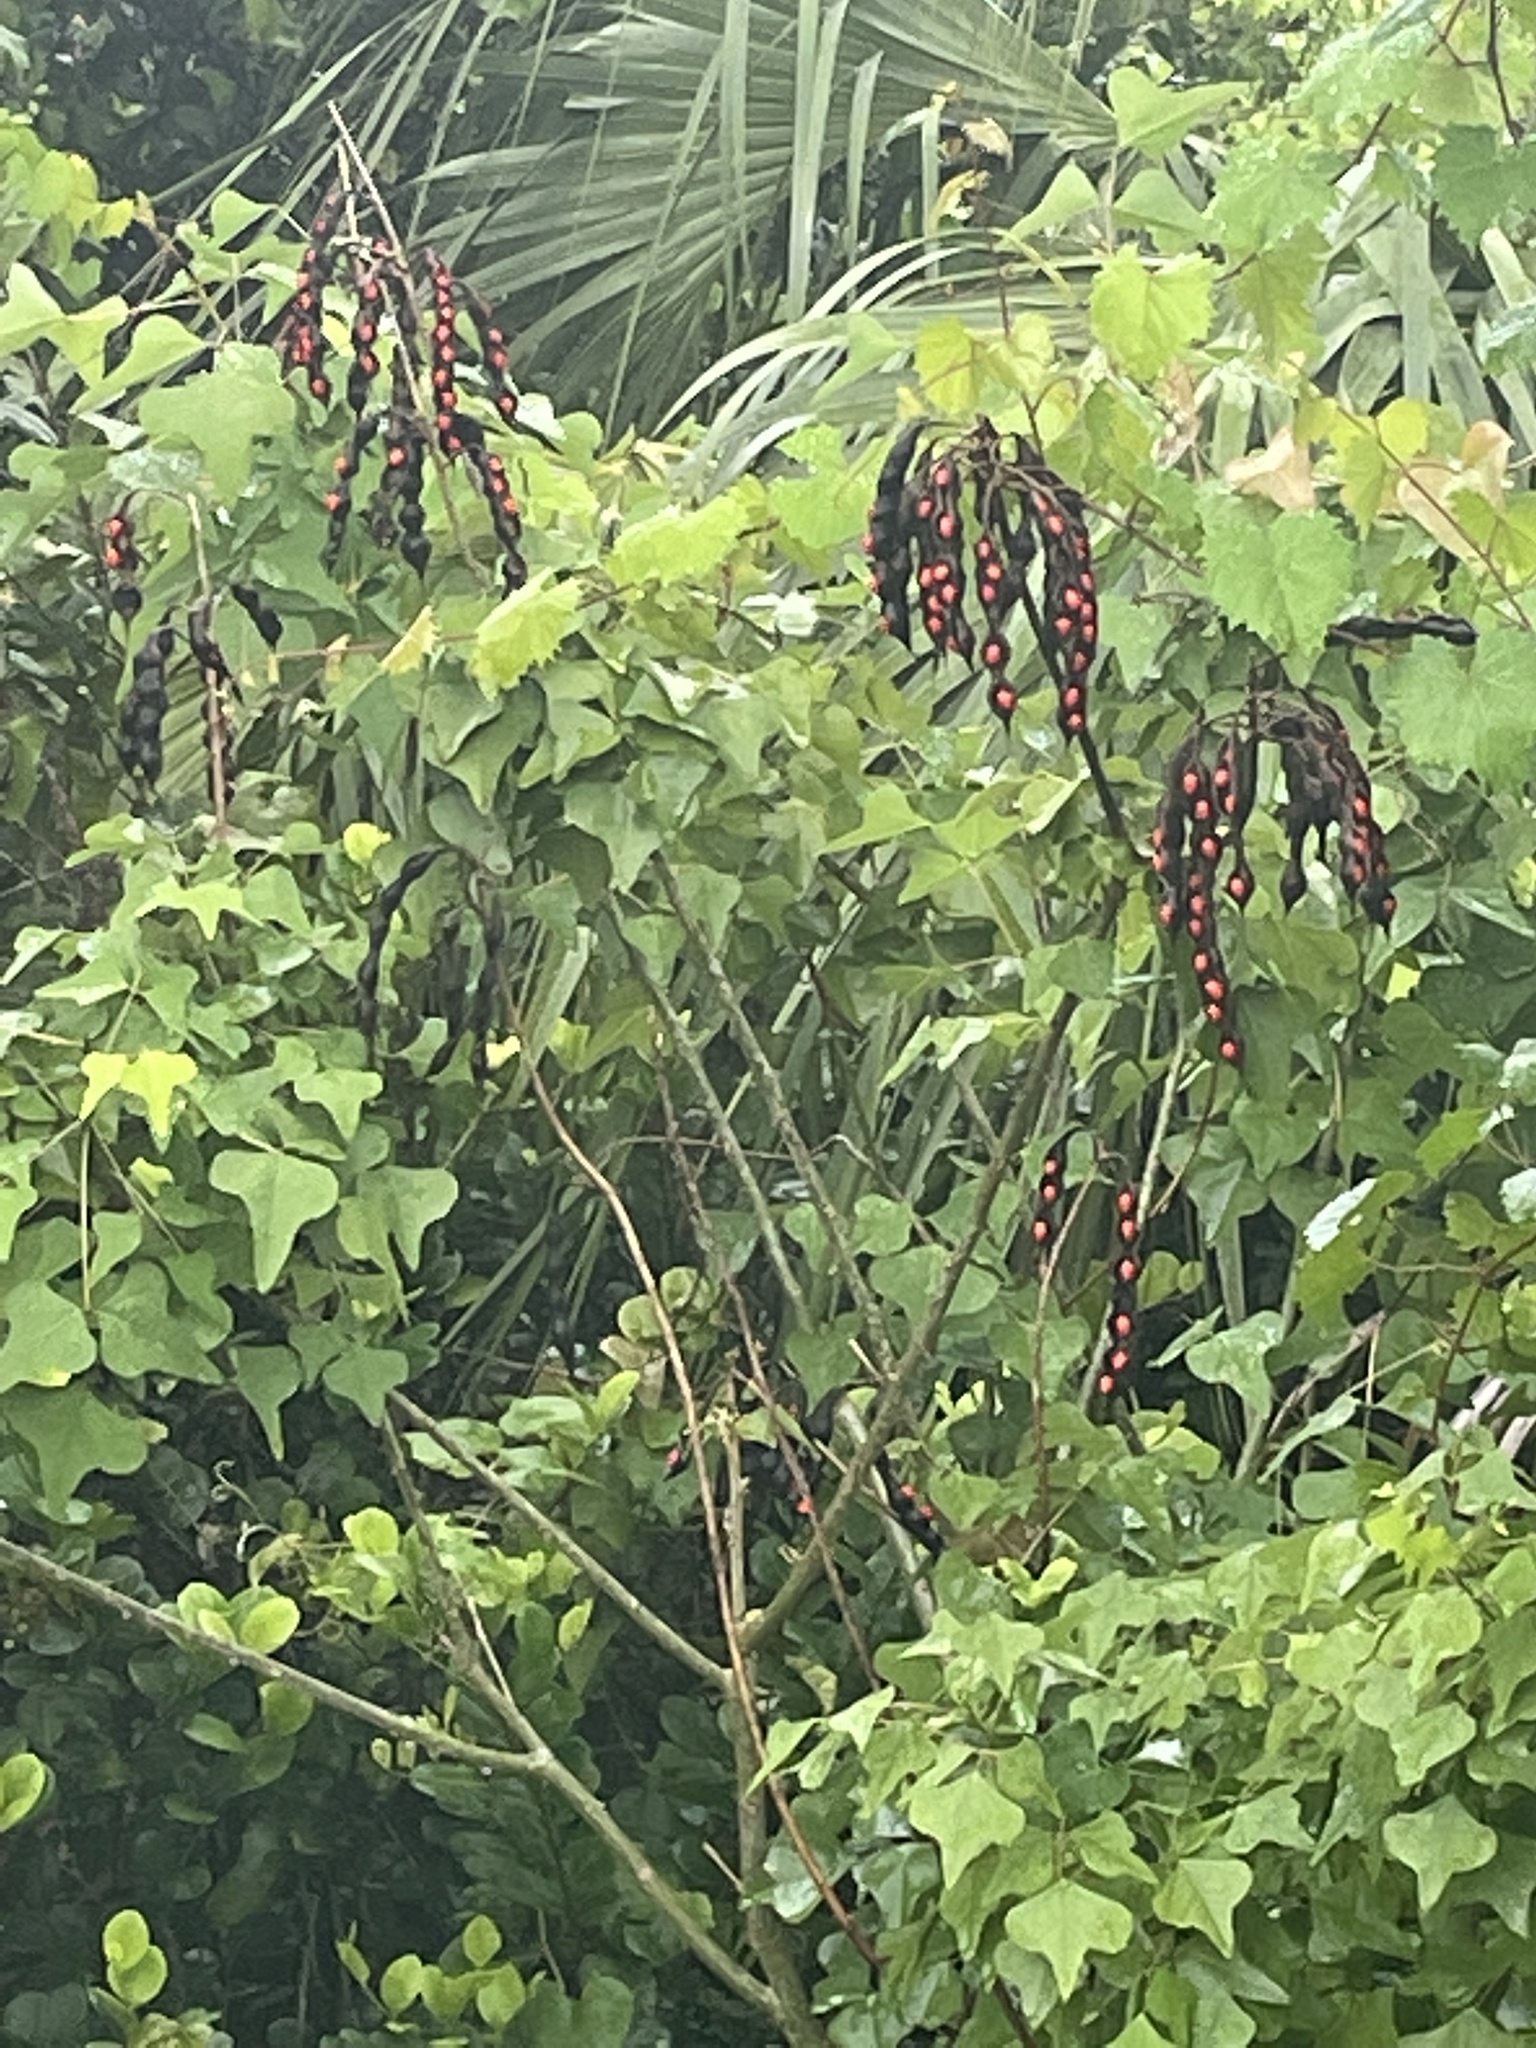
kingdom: Plantae
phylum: Tracheophyta
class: Magnoliopsida
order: Fabales
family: Fabaceae
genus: Erythrina
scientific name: Erythrina herbacea
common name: Coral-bean
